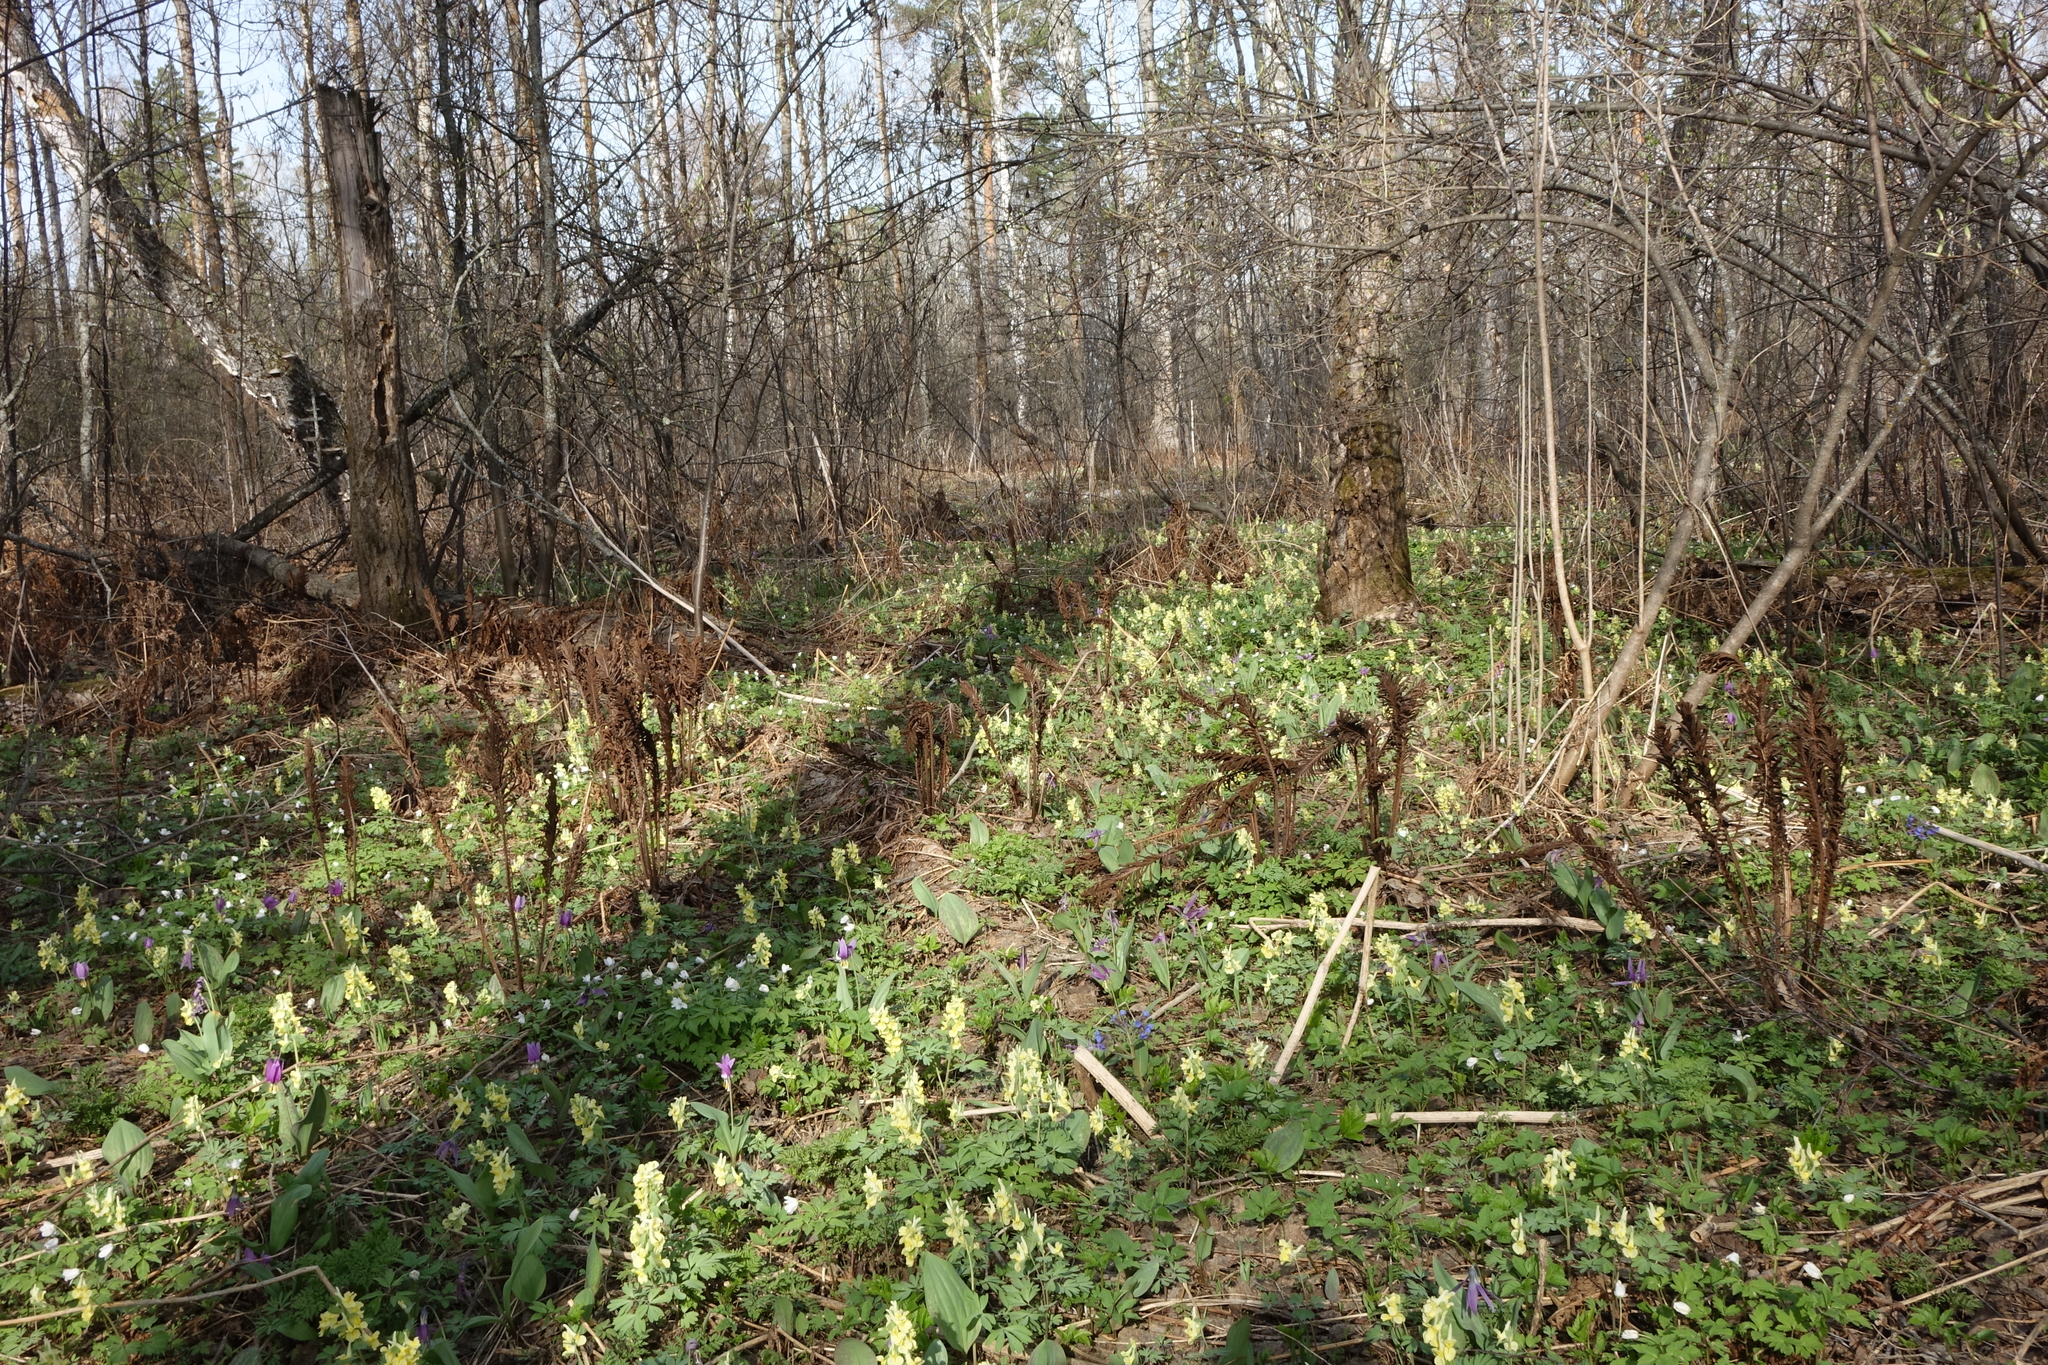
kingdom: Plantae
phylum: Tracheophyta
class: Magnoliopsida
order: Ranunculales
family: Papaveraceae
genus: Corydalis
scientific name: Corydalis bracteata
